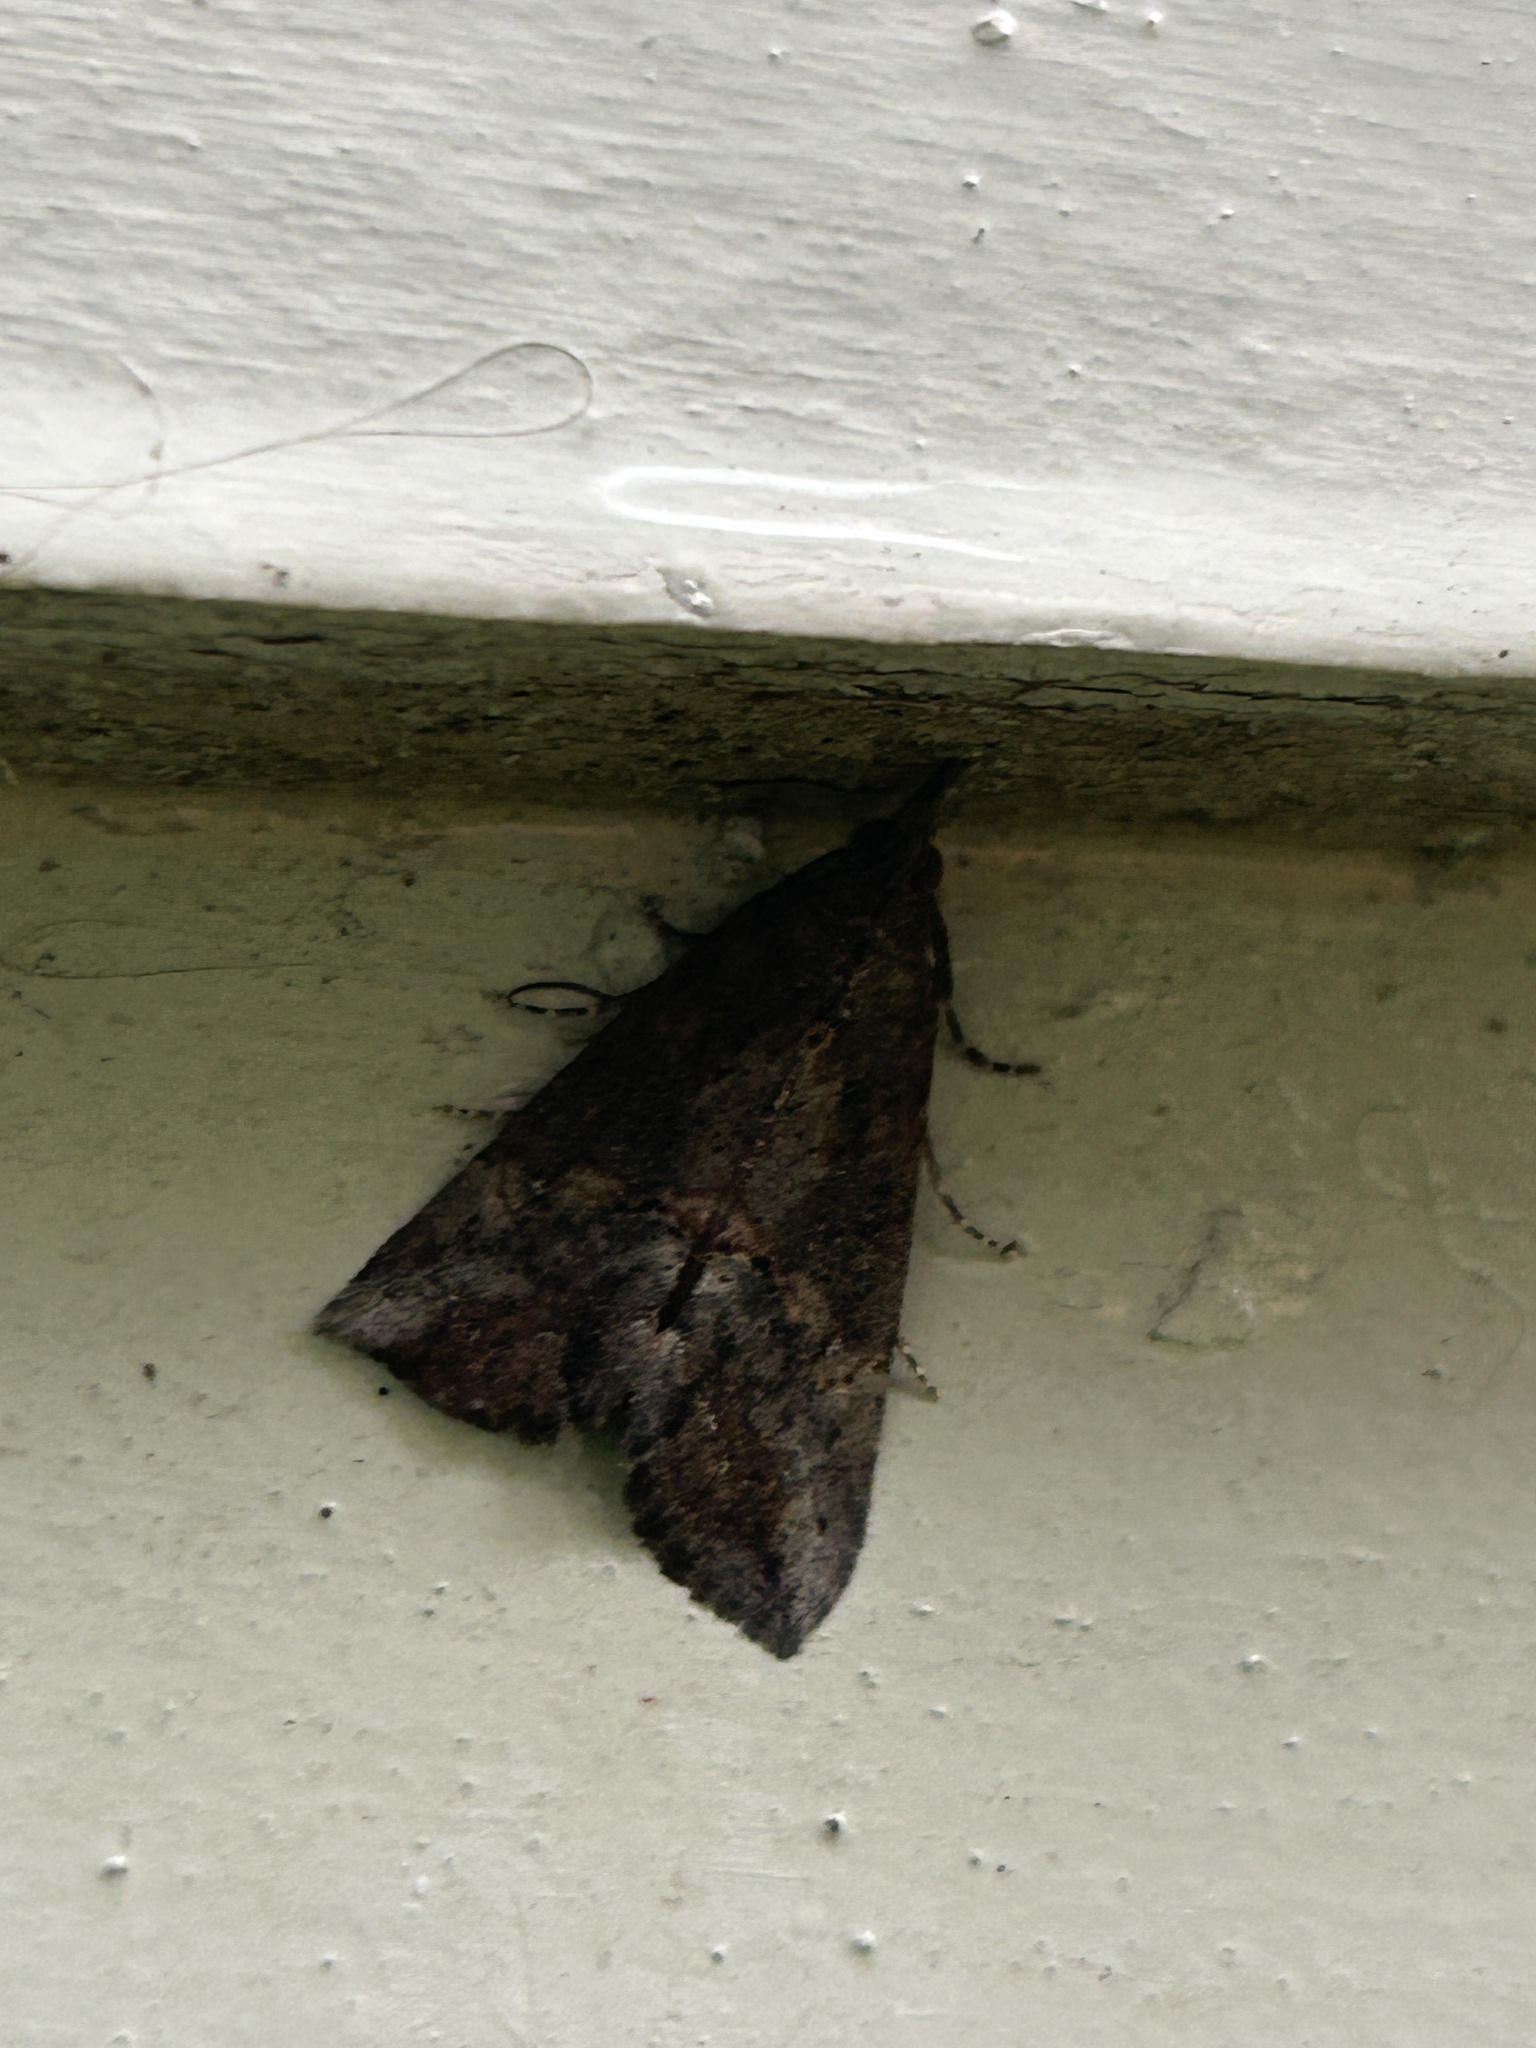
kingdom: Animalia
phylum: Arthropoda
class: Insecta
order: Lepidoptera
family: Erebidae
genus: Hypena
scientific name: Hypena scabra
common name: Green cloverworm
